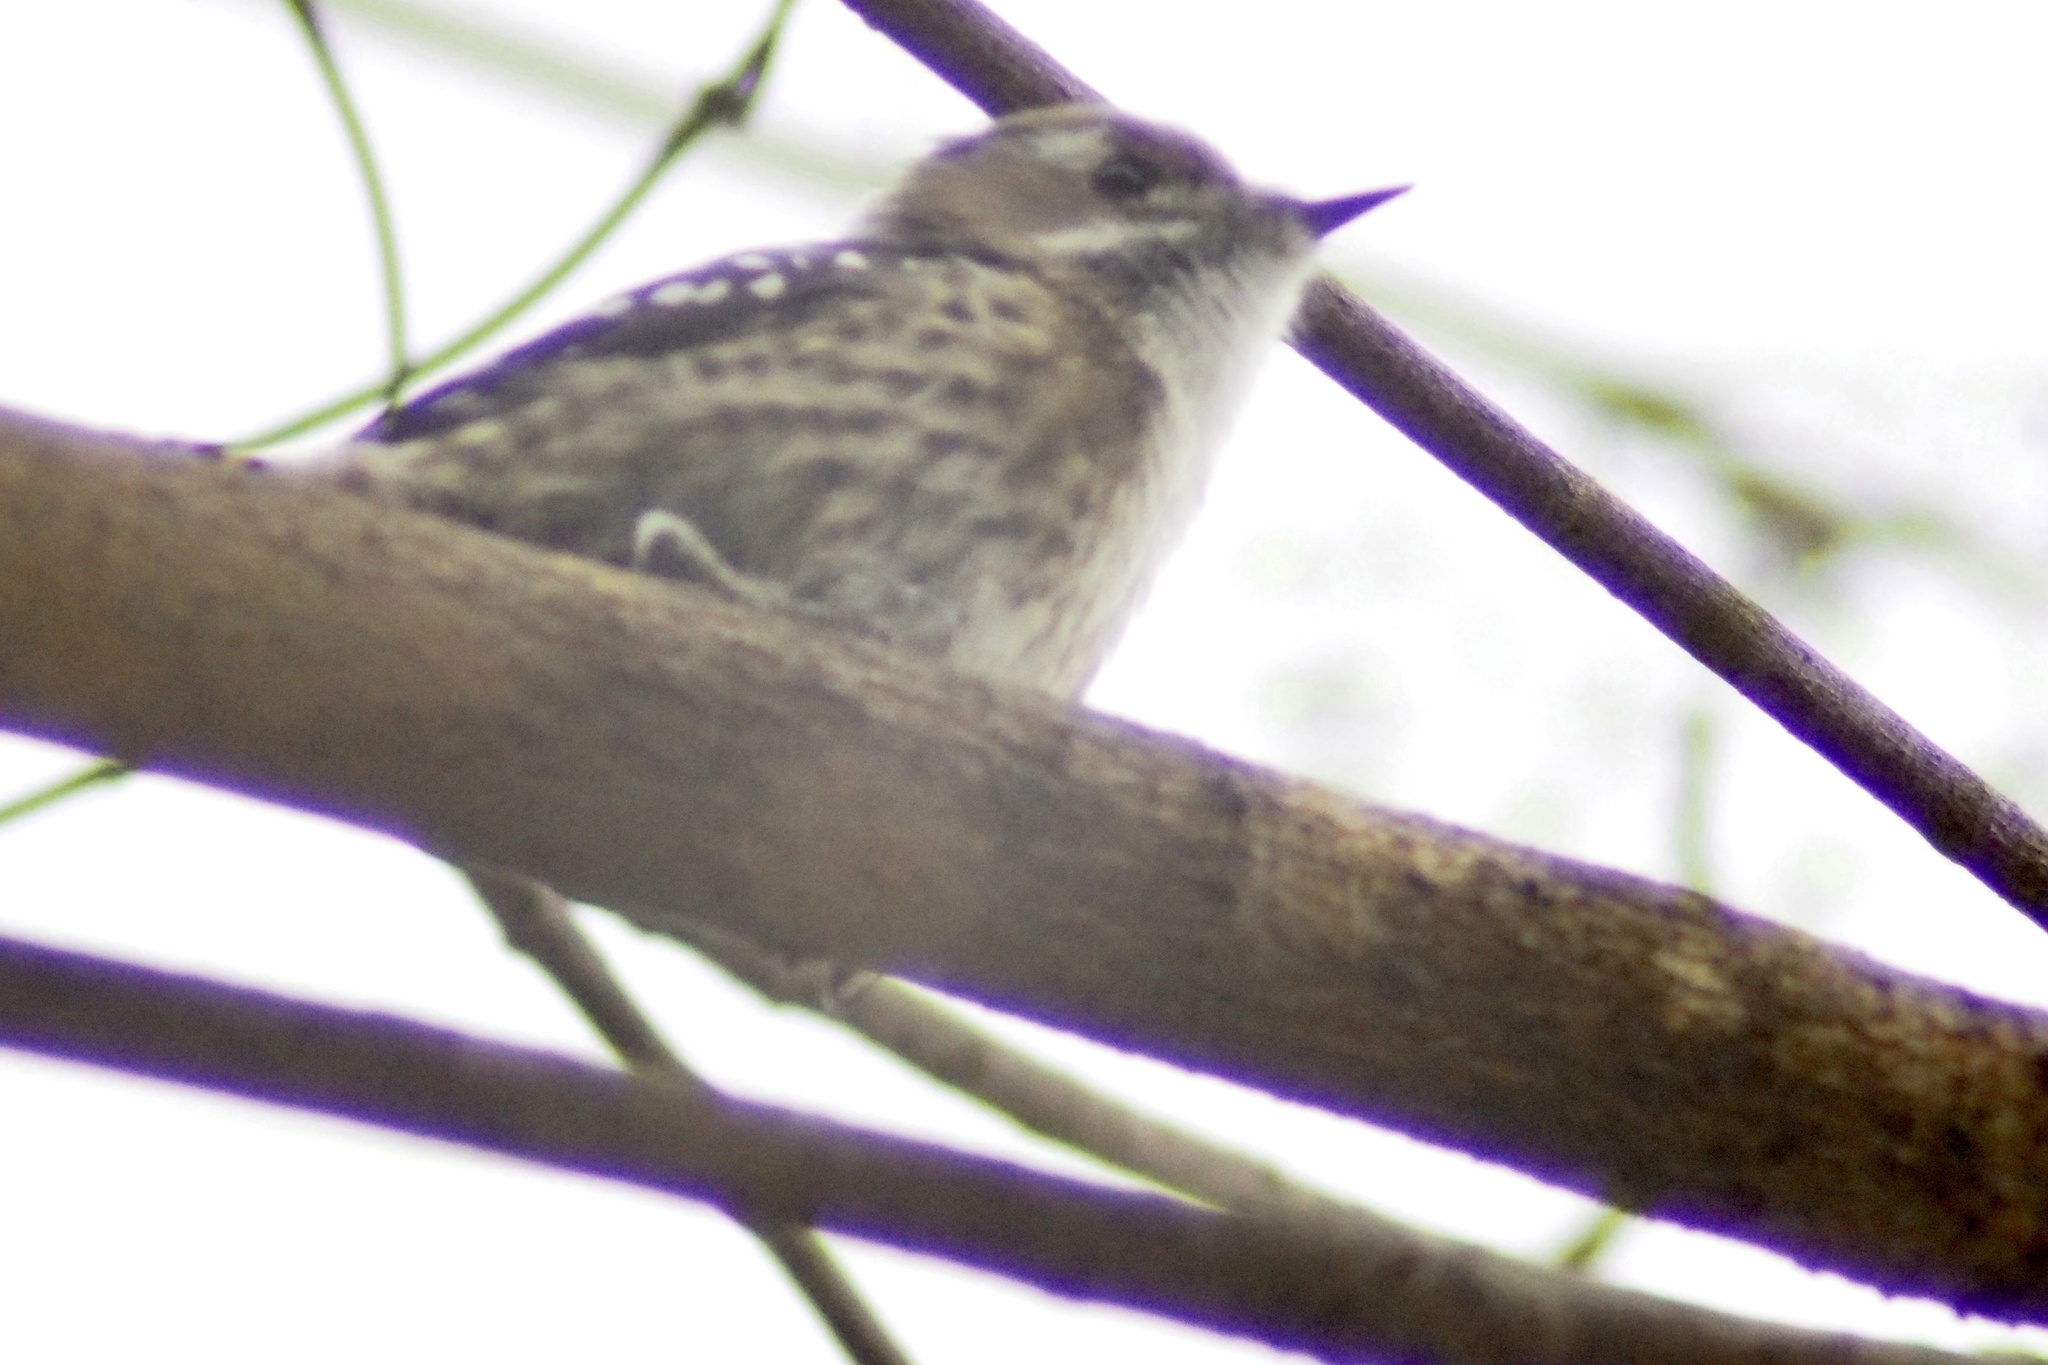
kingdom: Animalia
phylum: Chordata
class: Aves
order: Piciformes
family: Picidae
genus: Yungipicus
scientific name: Yungipicus kizuki
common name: Japanese pygmy woodpecker
